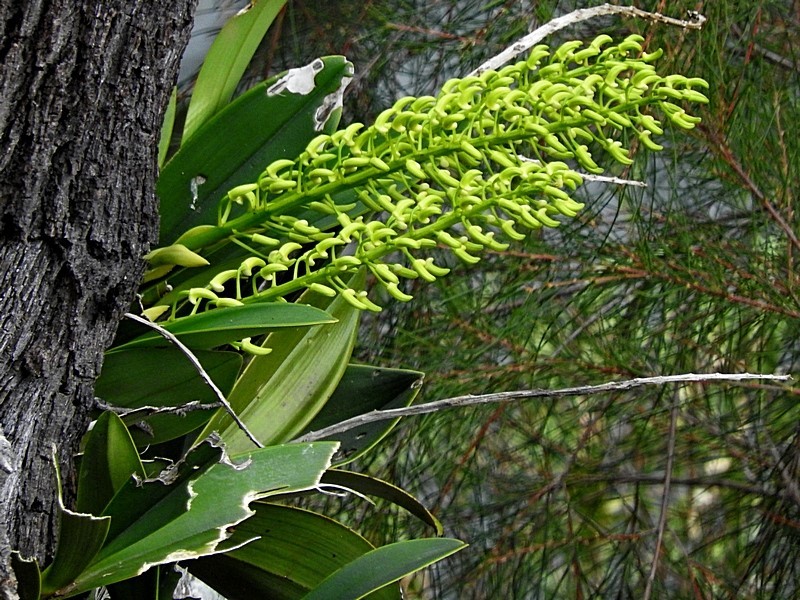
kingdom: Plantae
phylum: Tracheophyta
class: Liliopsida
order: Asparagales
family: Orchidaceae
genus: Dendrobium
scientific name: Dendrobium speciosum
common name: Rock-lily
